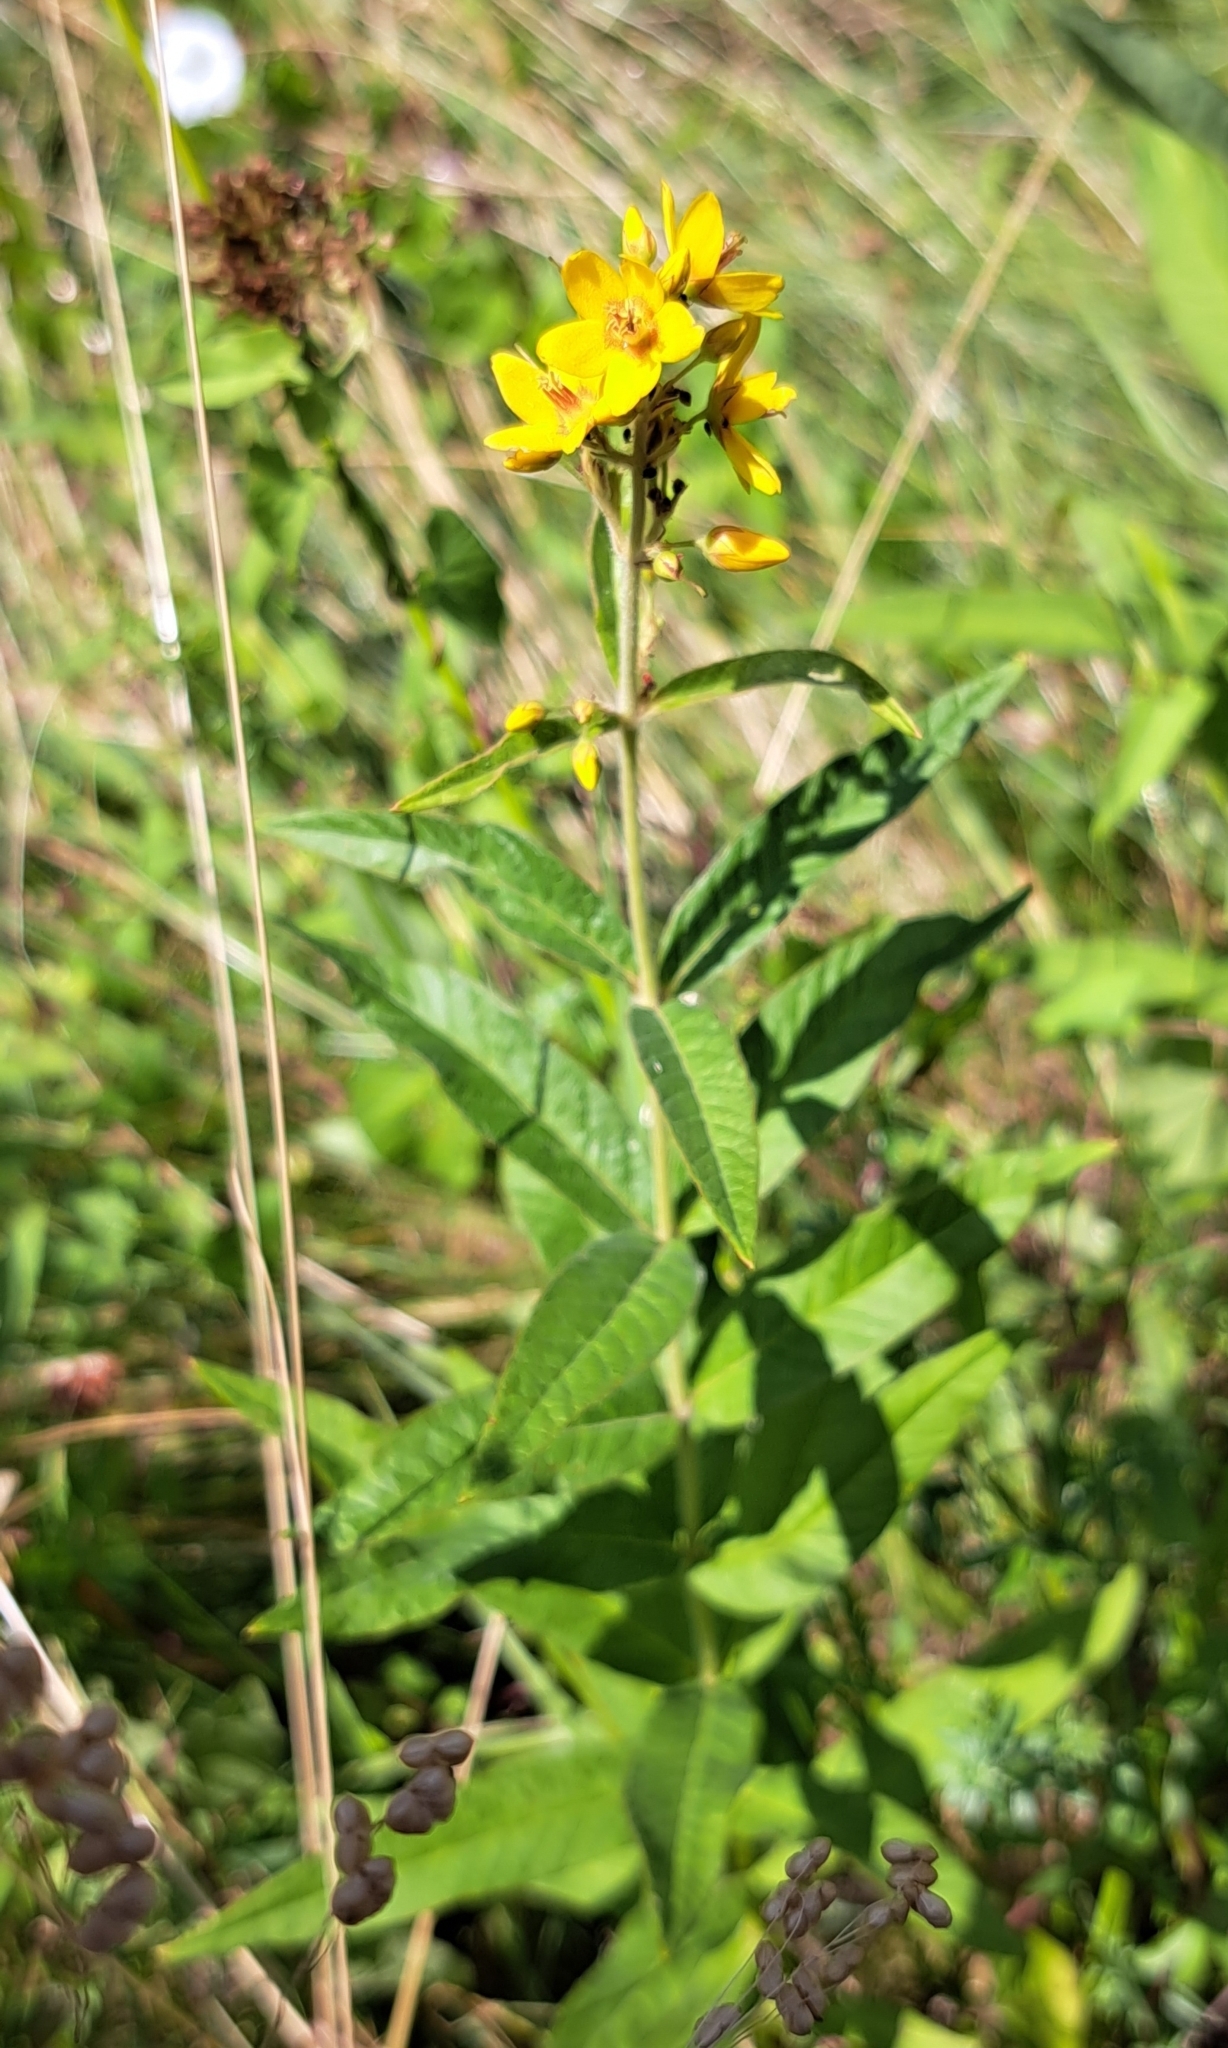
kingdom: Plantae
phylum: Tracheophyta
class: Magnoliopsida
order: Ericales
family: Primulaceae
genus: Lysimachia
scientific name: Lysimachia vulgaris
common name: Yellow loosestrife
